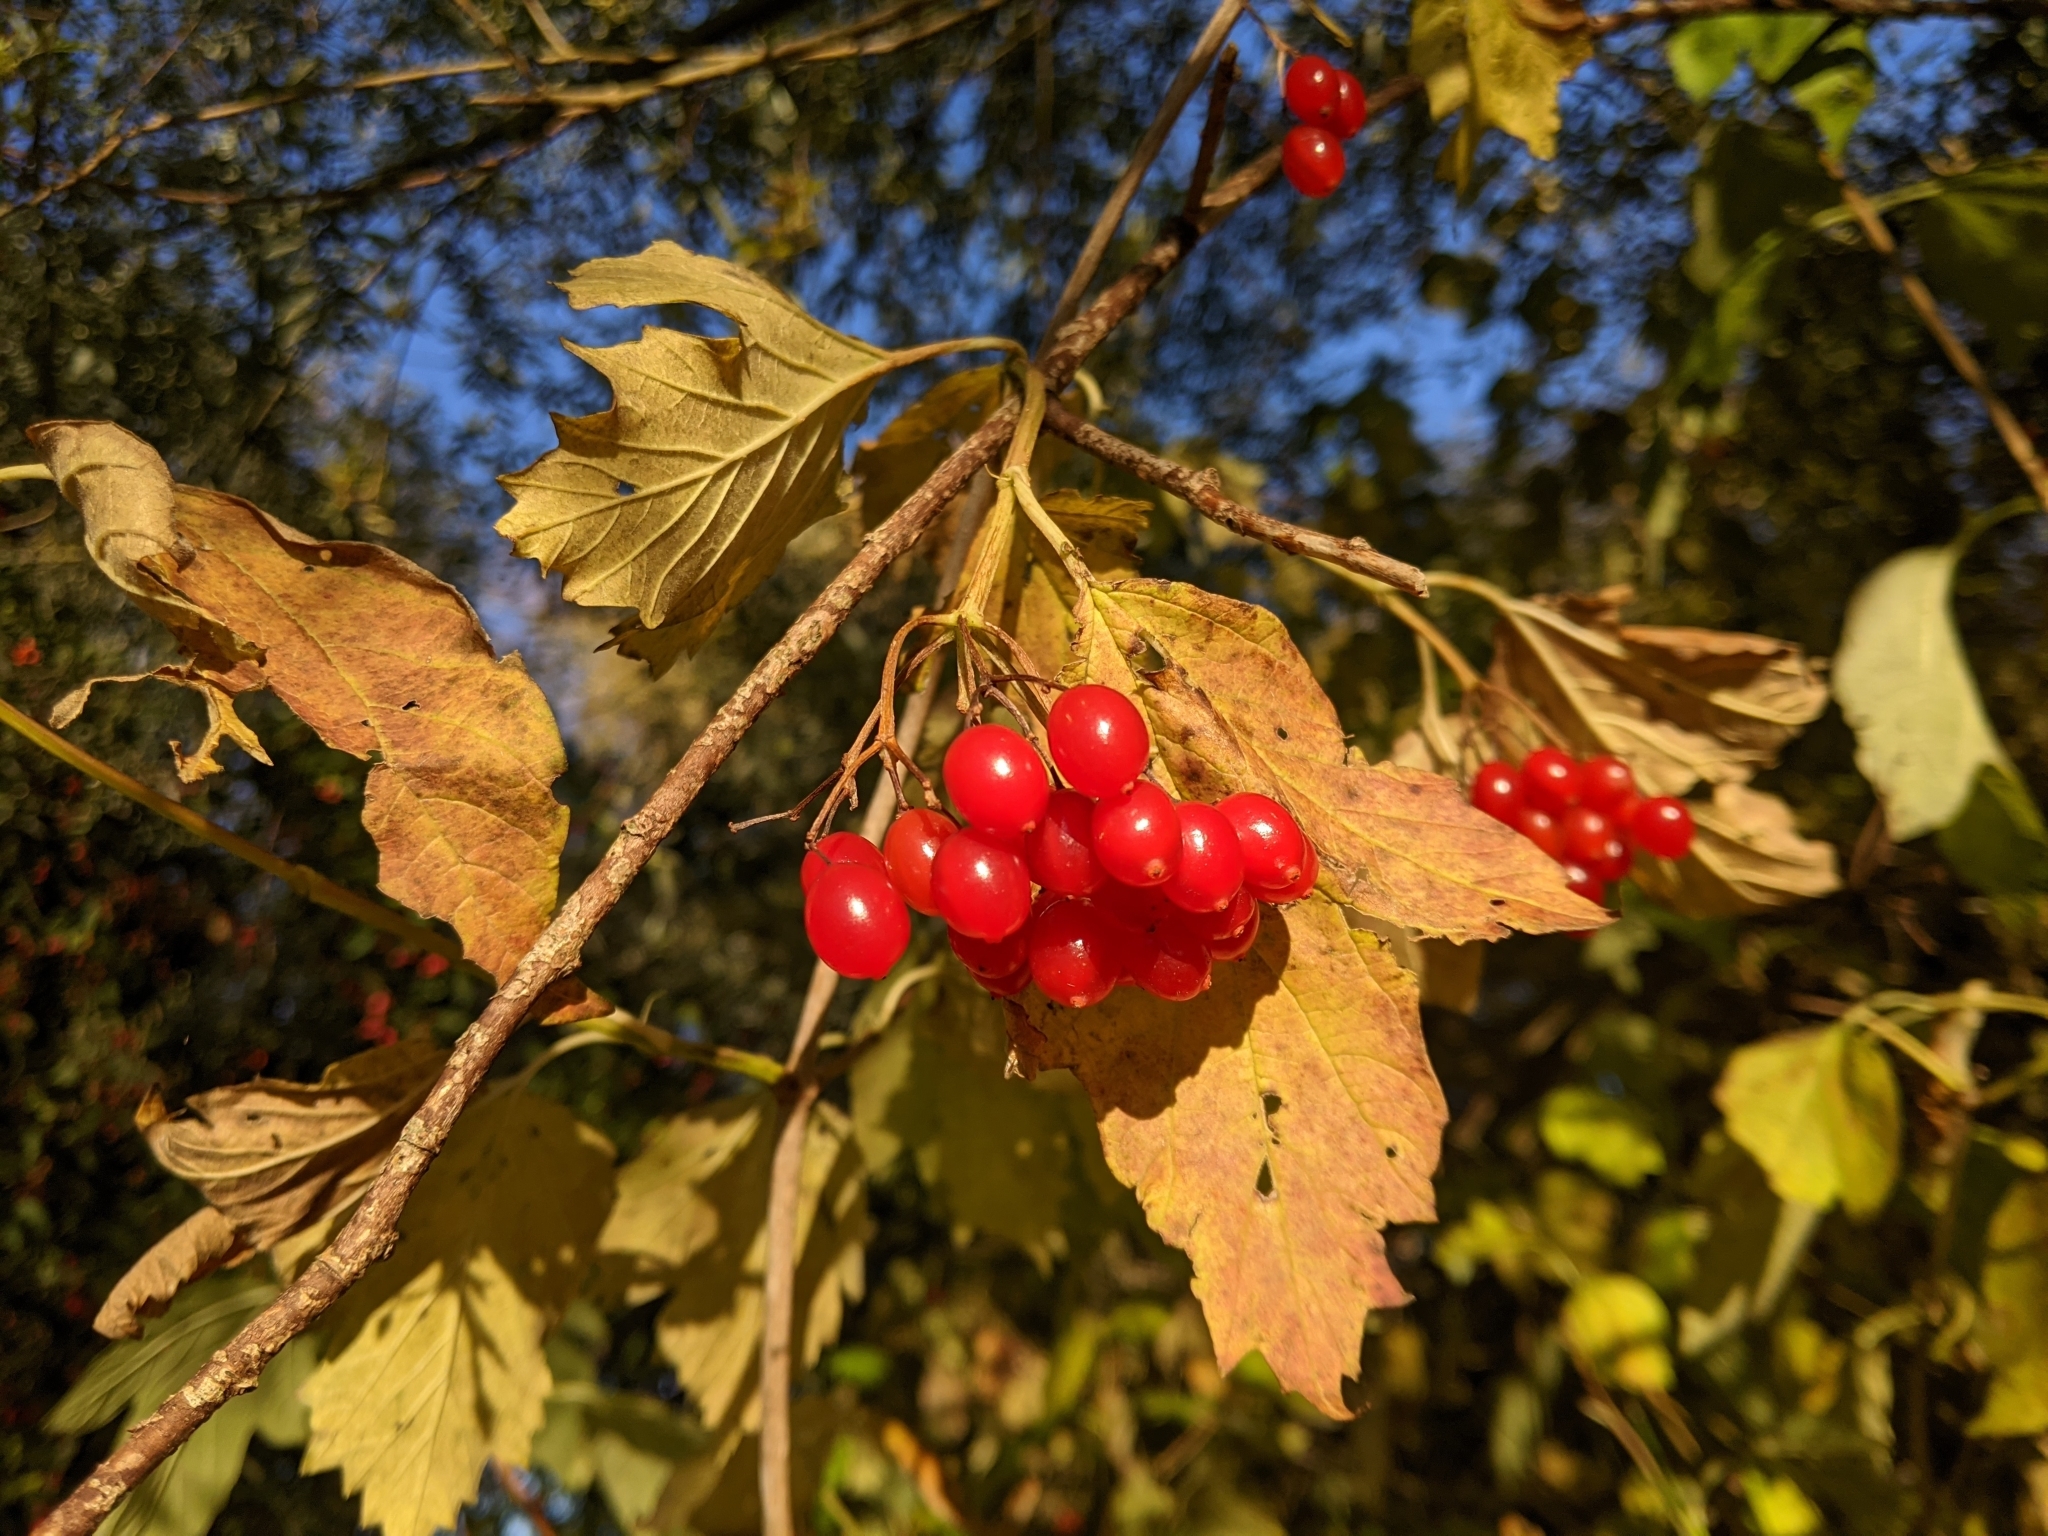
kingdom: Plantae
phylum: Tracheophyta
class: Magnoliopsida
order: Dipsacales
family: Viburnaceae
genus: Viburnum
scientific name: Viburnum opulus
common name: Guelder-rose
